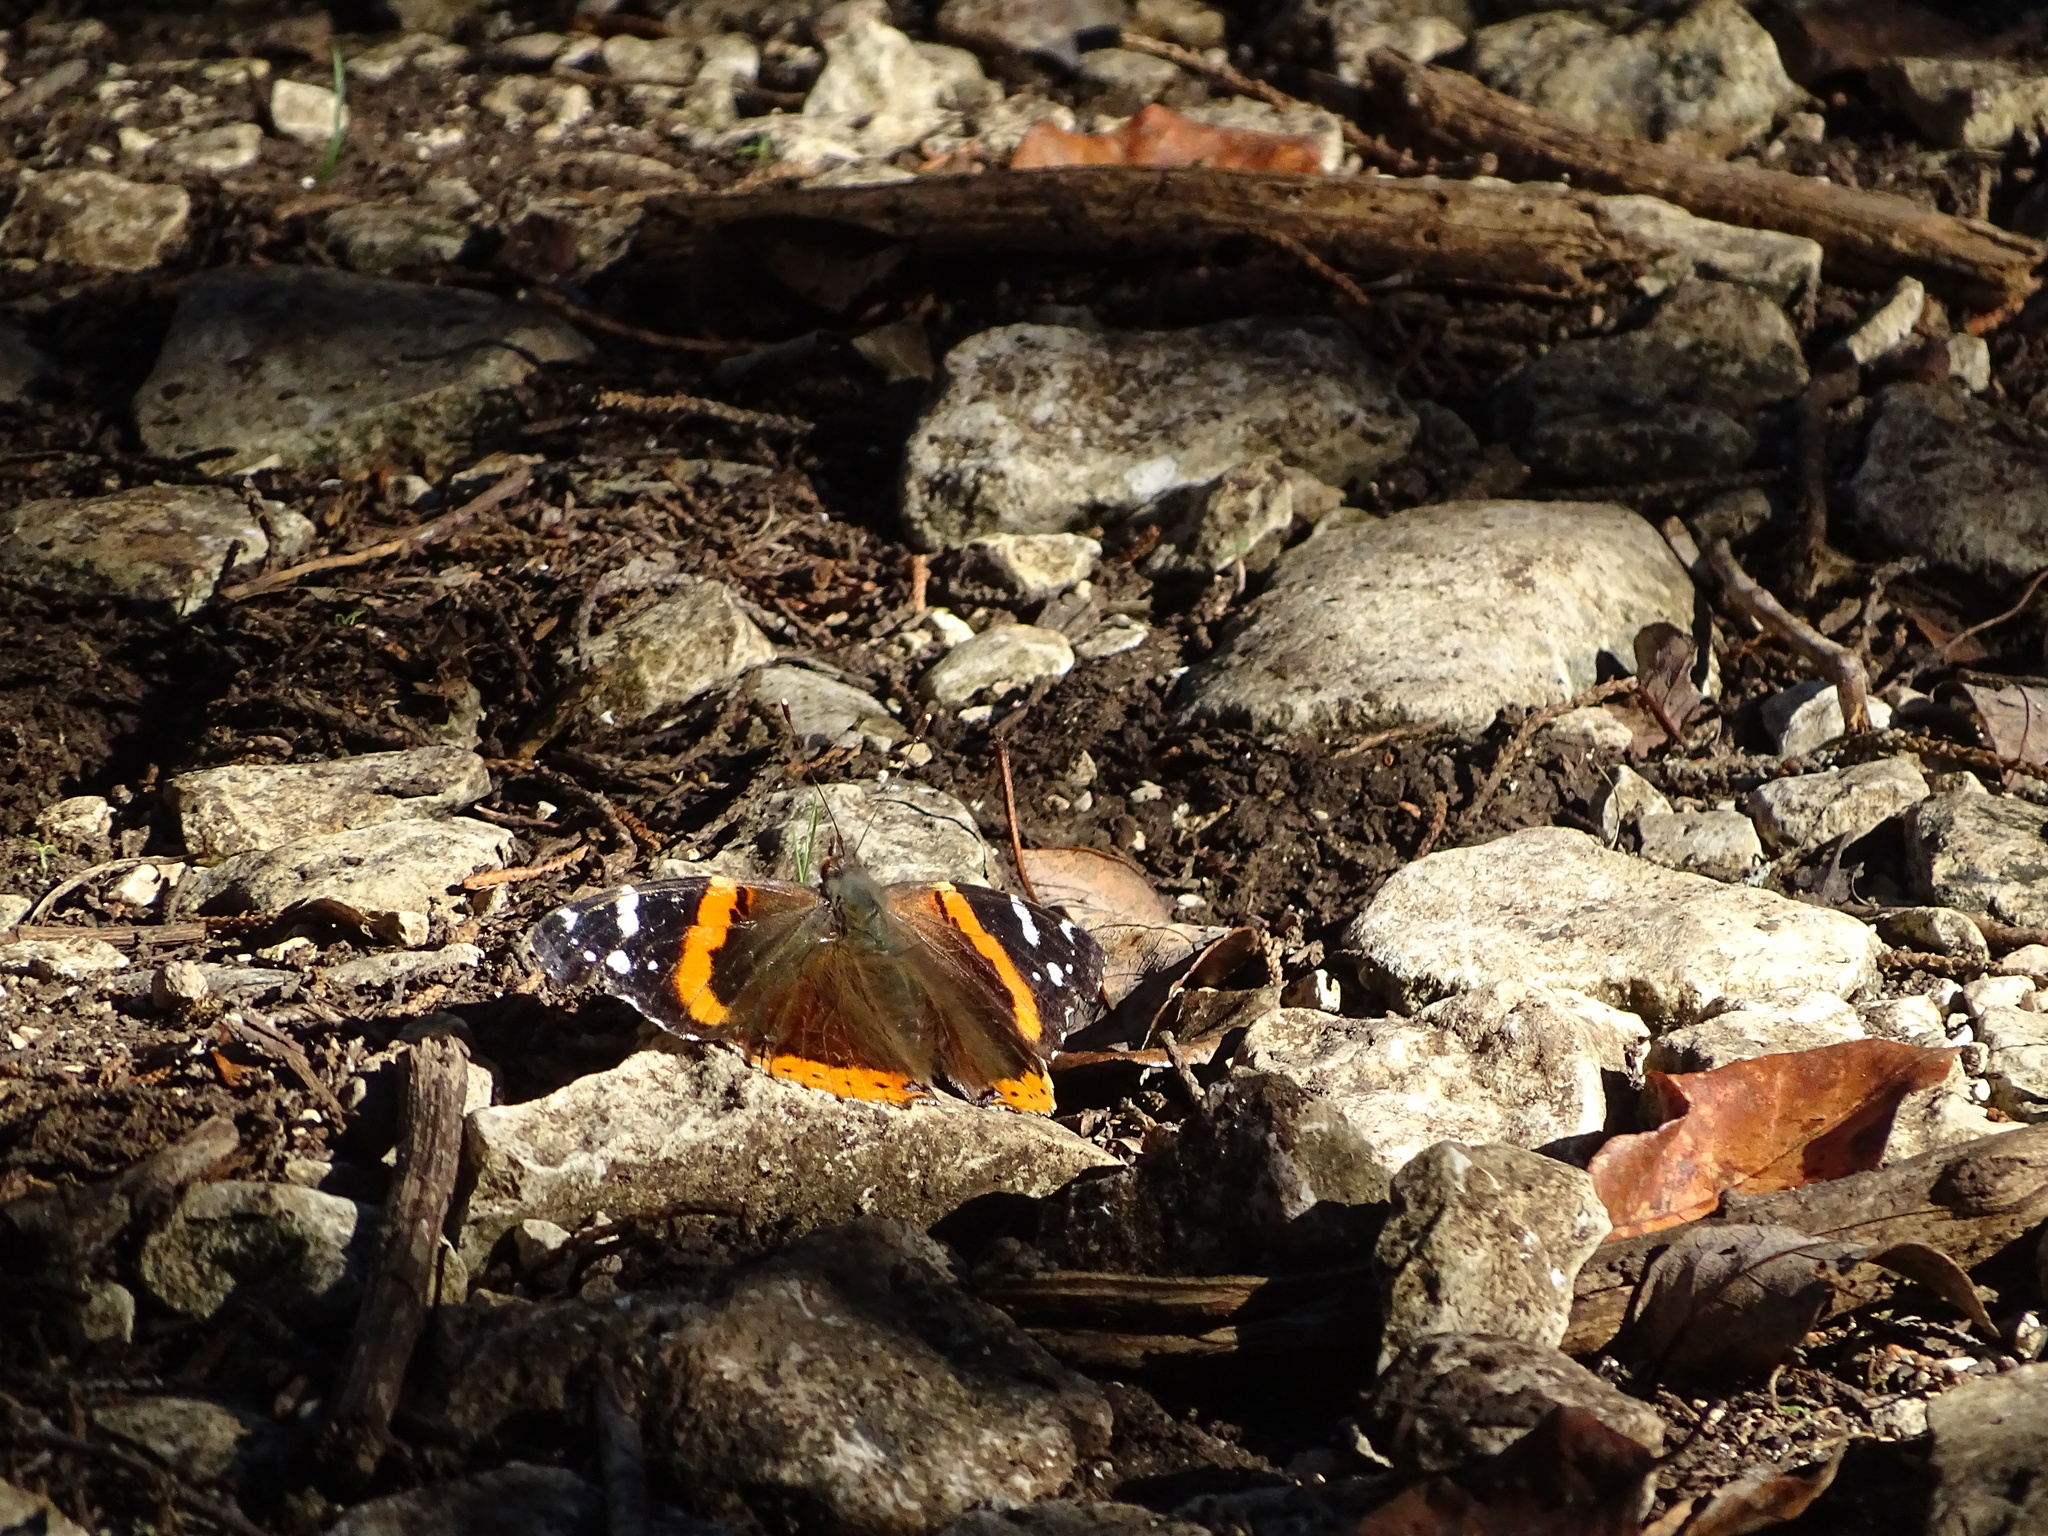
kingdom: Animalia
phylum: Arthropoda
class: Insecta
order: Lepidoptera
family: Nymphalidae
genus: Vanessa
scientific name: Vanessa atalanta
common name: Red admiral
